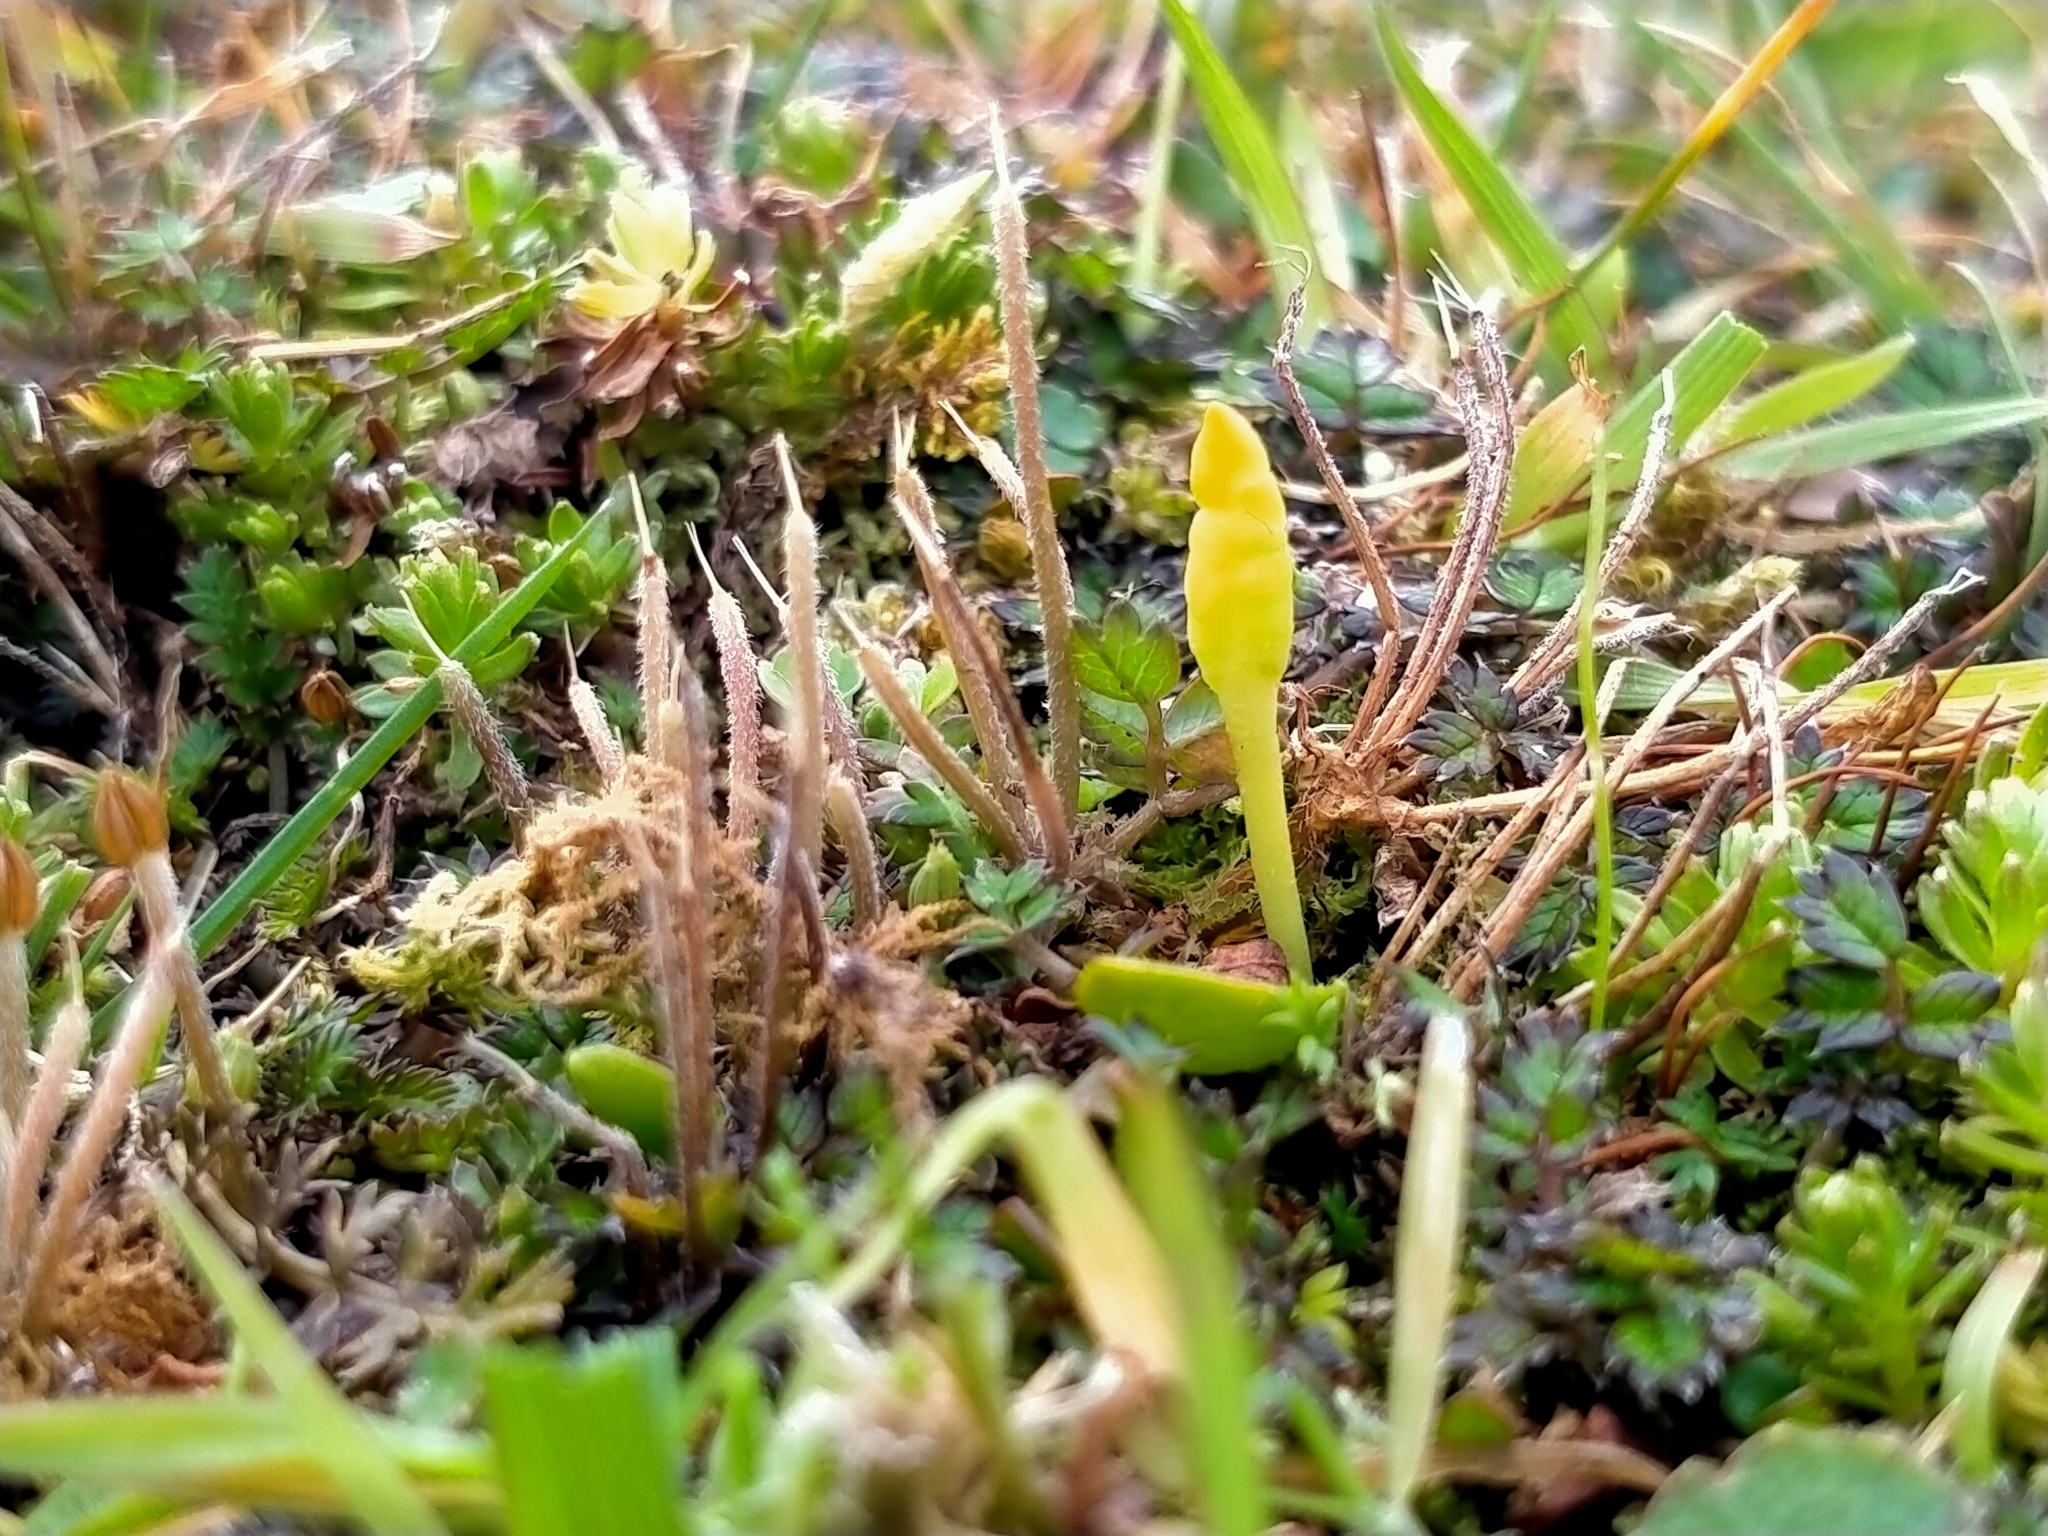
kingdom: Plantae
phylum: Tracheophyta
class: Polypodiopsida
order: Ophioglossales
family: Ophioglossaceae
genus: Ophioglossum
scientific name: Ophioglossum coriaceum
